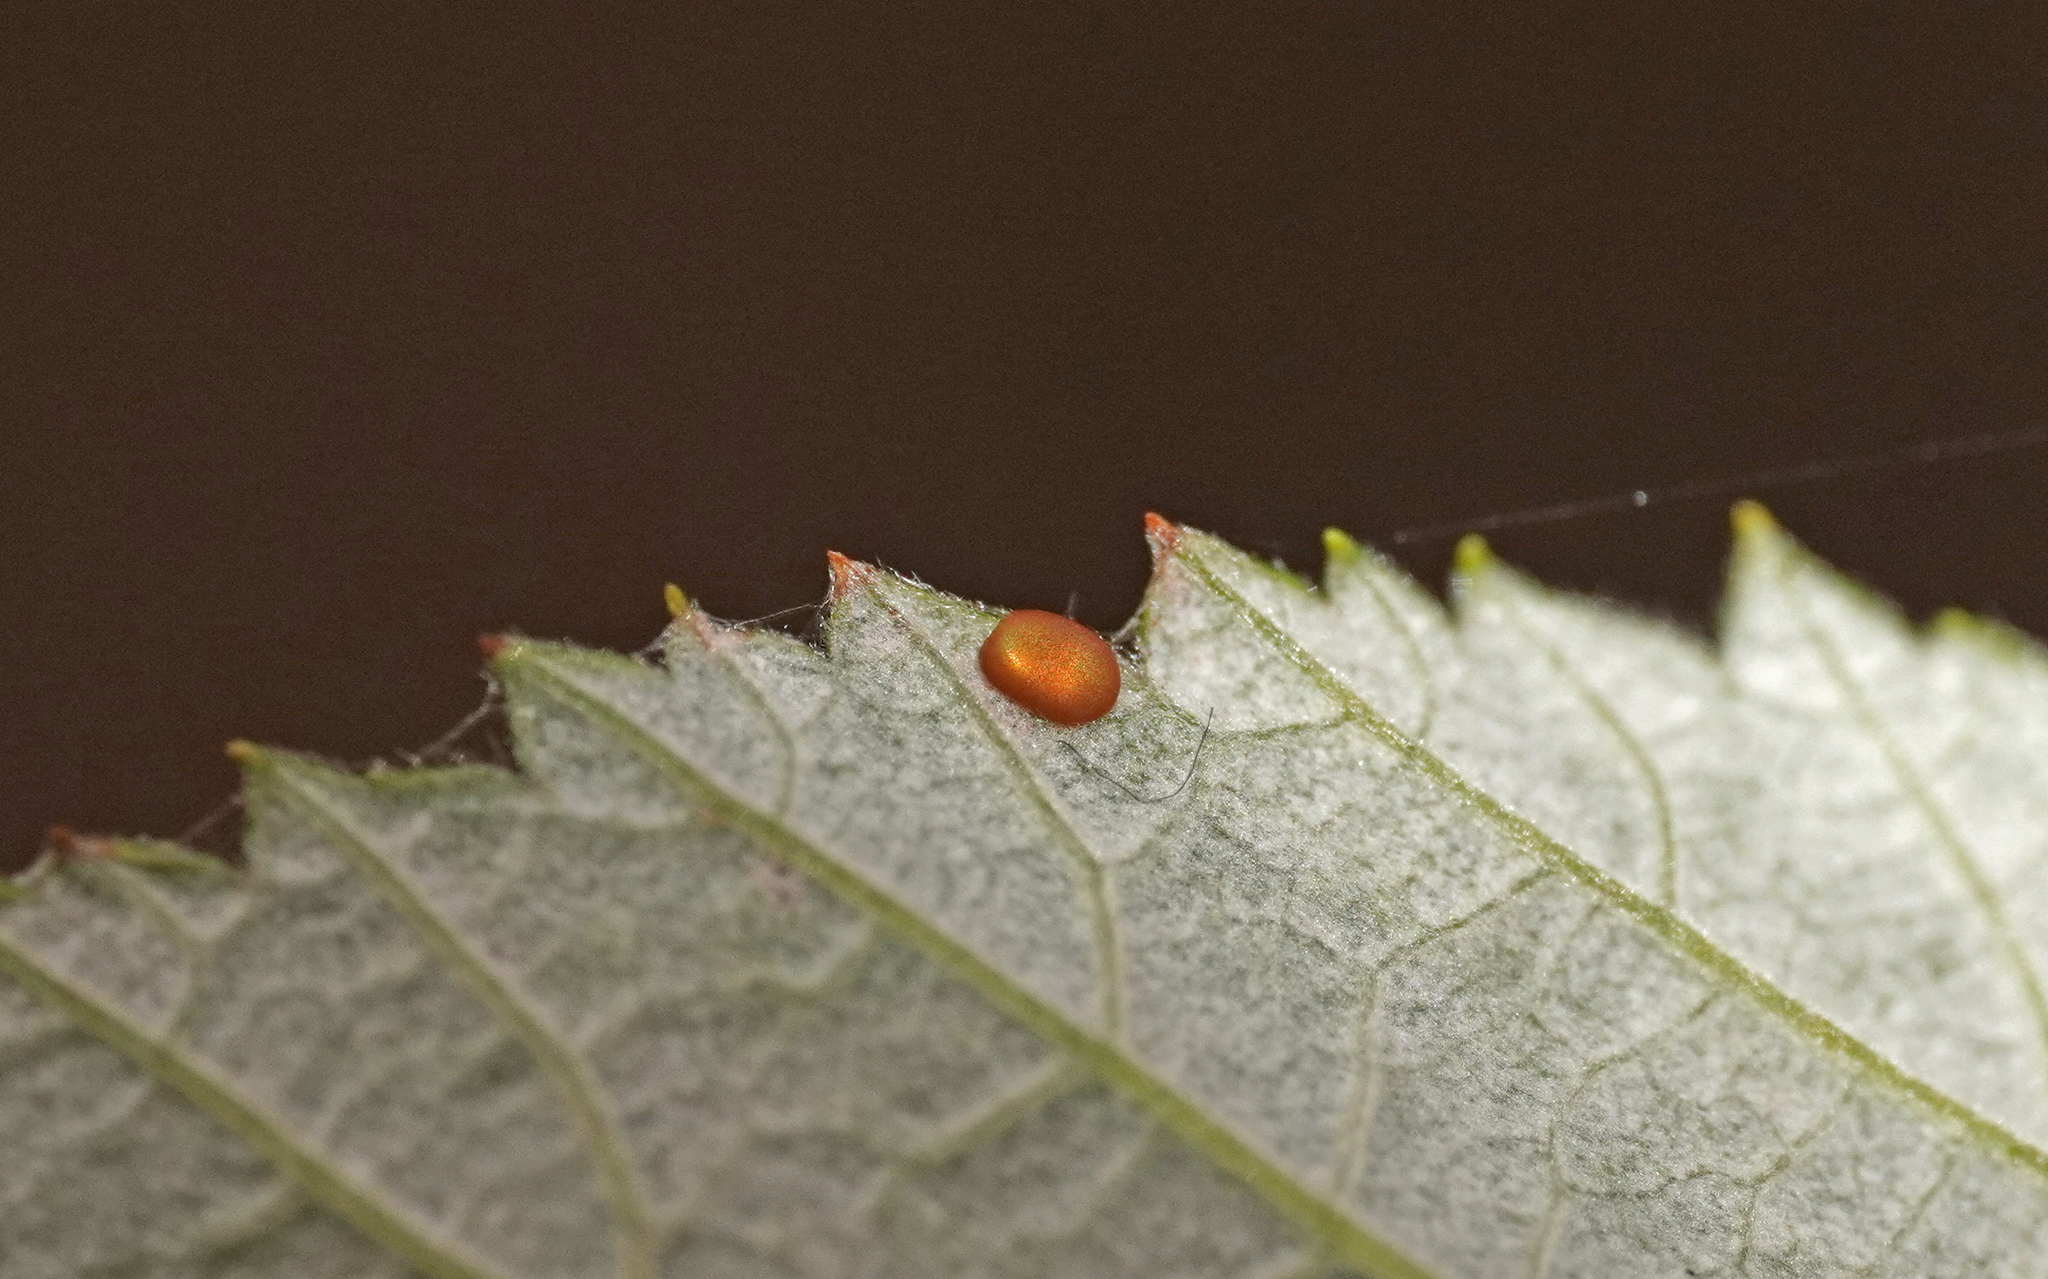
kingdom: Animalia
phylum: Arthropoda
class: Insecta
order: Lepidoptera
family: Sesiidae
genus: Pennisetia
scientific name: Pennisetia hylaeiformis
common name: Raspberry clearwing
